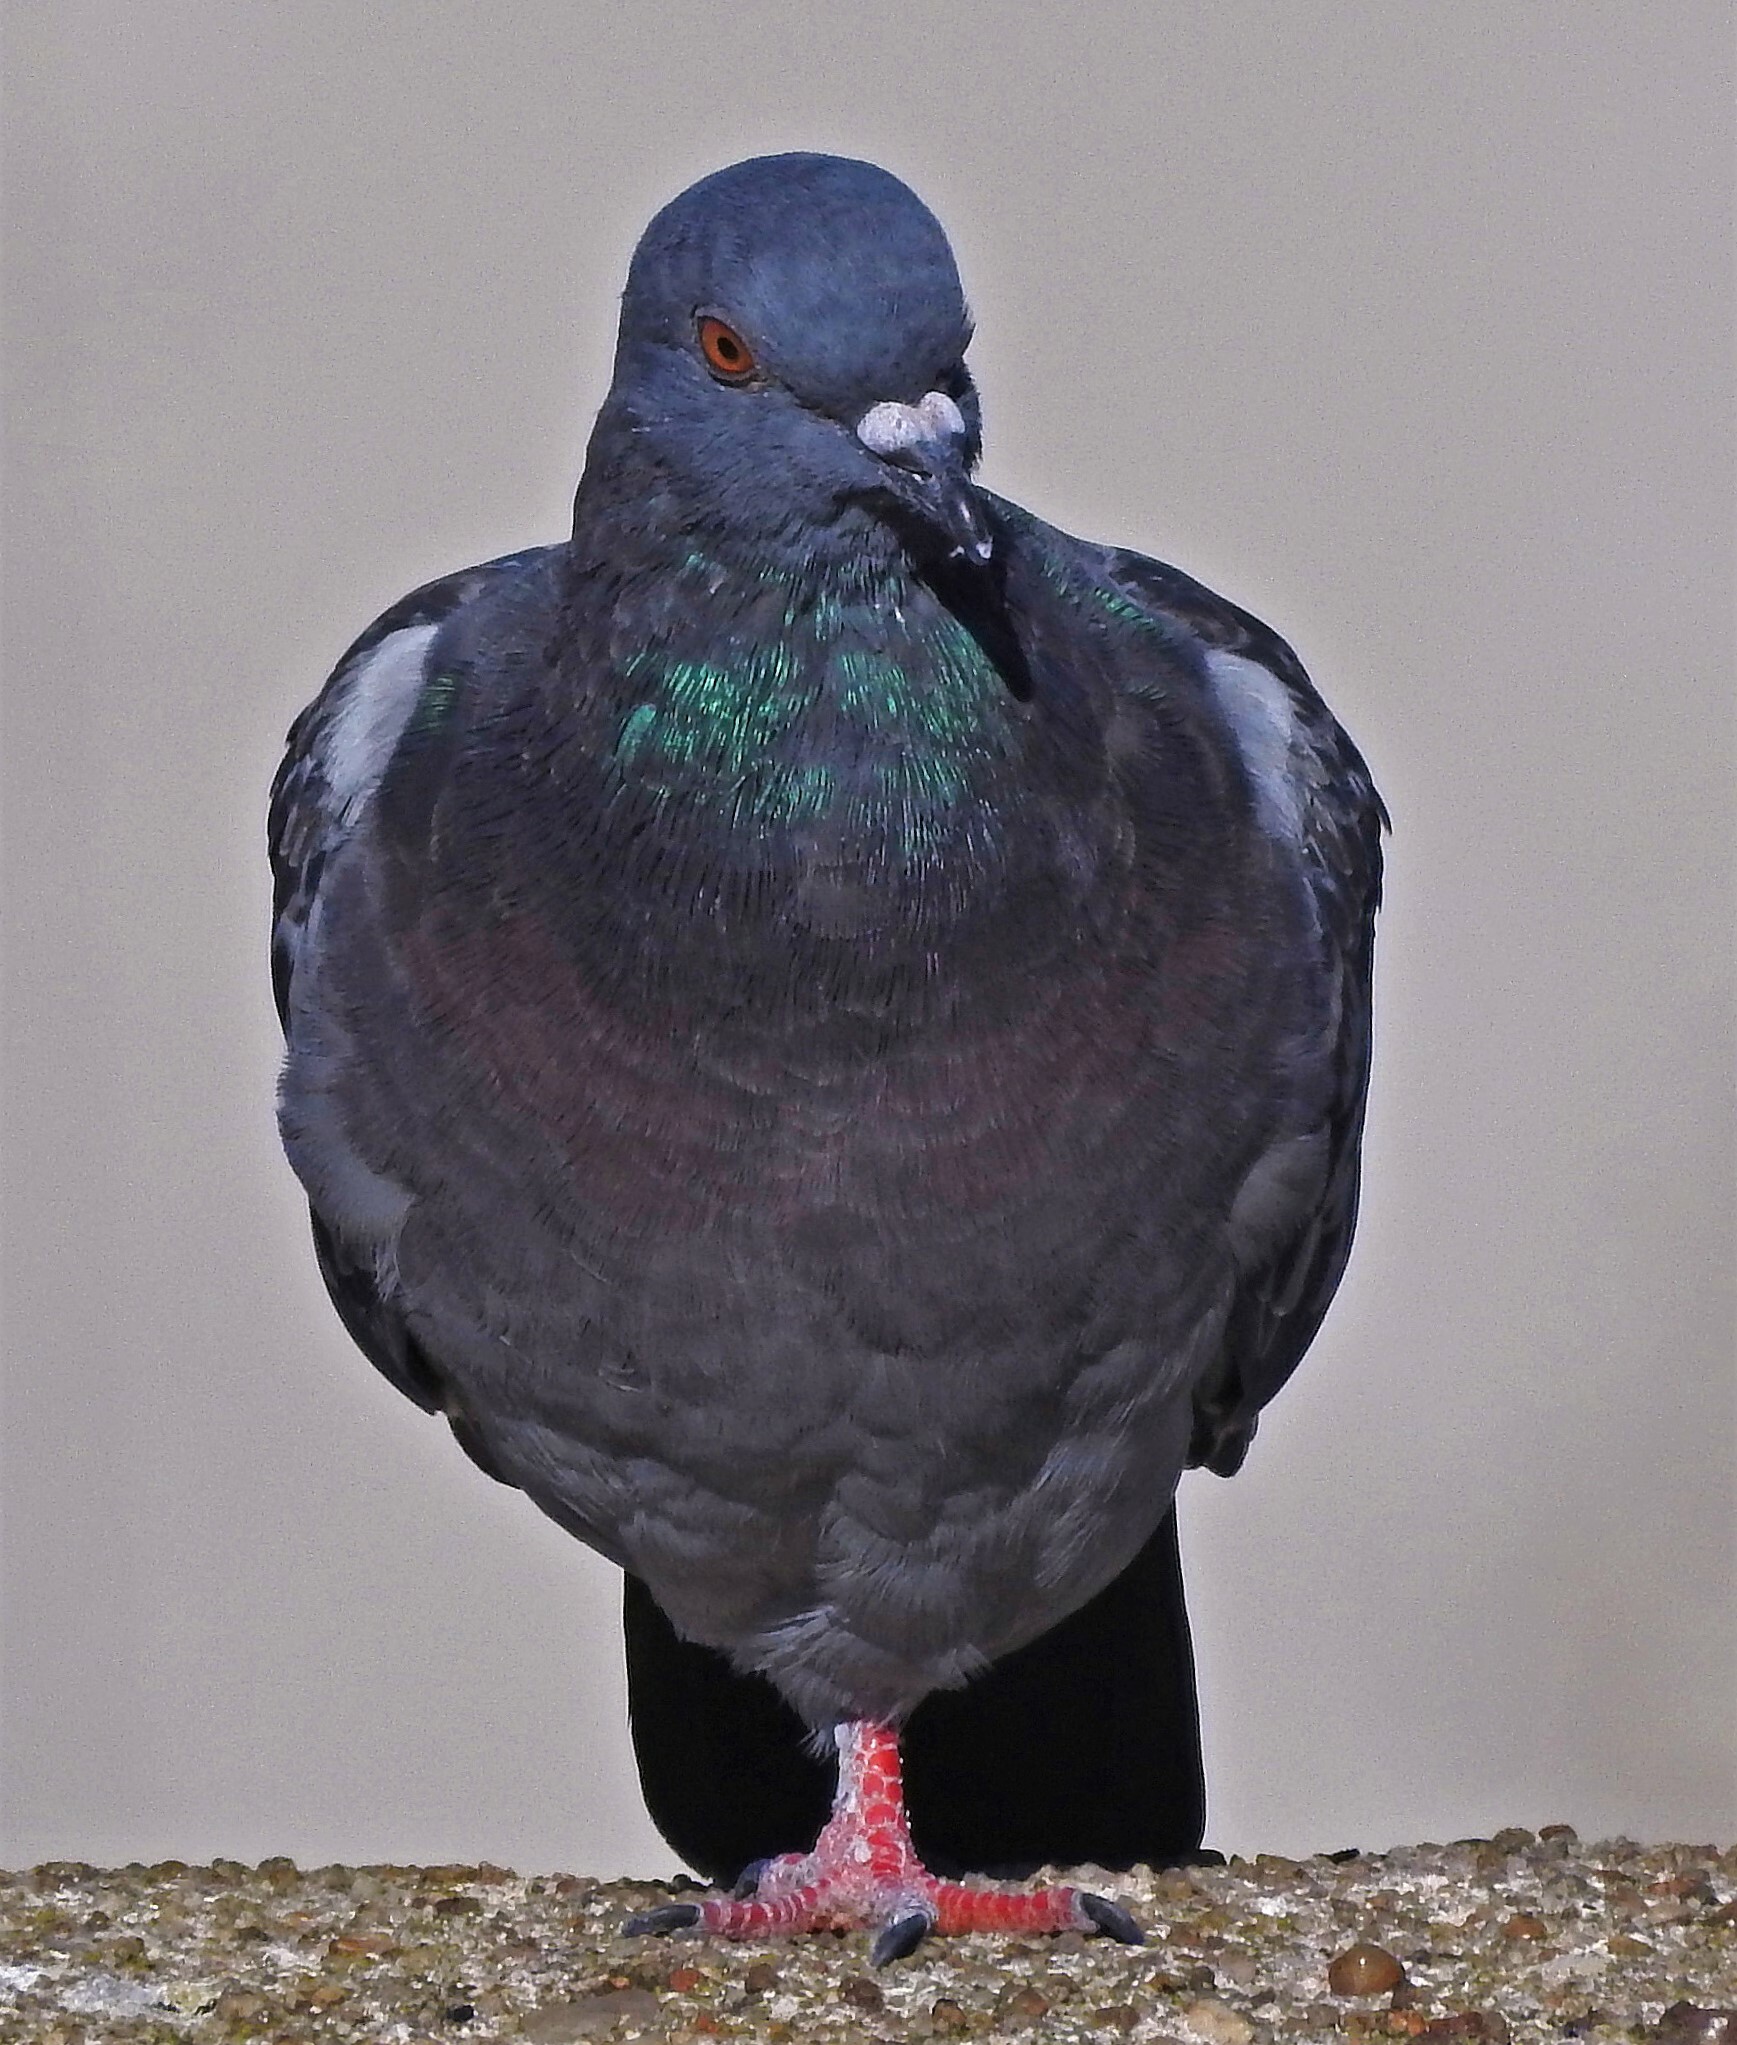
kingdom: Animalia
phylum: Chordata
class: Aves
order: Columbiformes
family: Columbidae
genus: Columba
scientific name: Columba livia
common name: Rock pigeon
